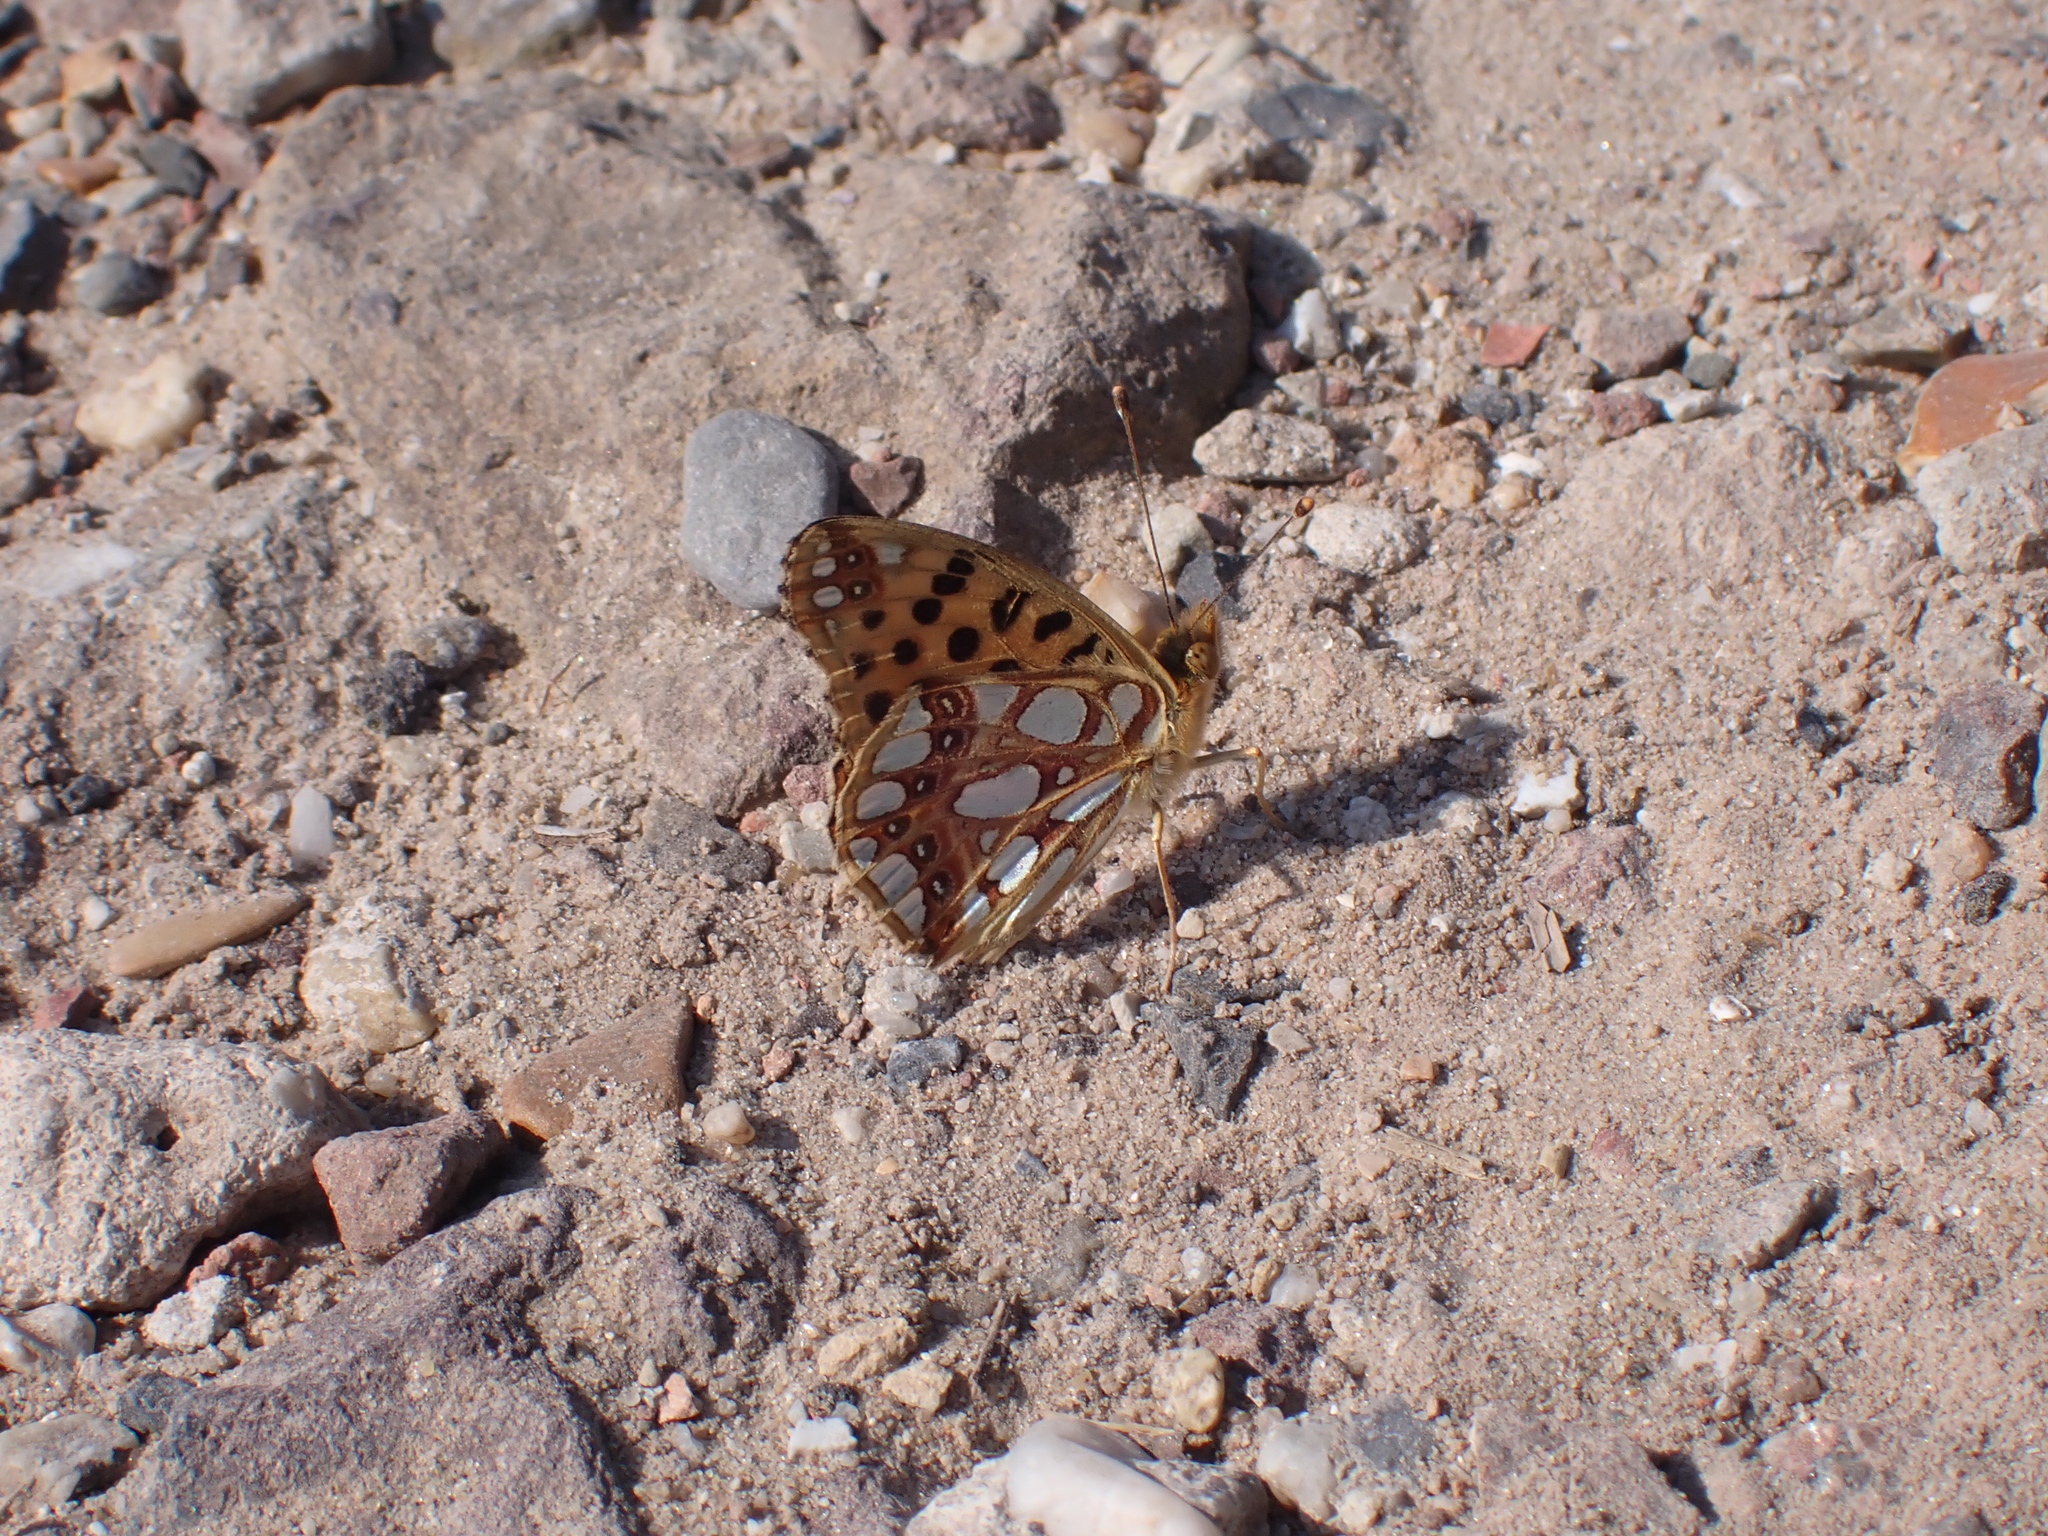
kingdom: Animalia
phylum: Arthropoda
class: Insecta
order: Lepidoptera
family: Nymphalidae
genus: Issoria
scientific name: Issoria lathonia
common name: Queen of spain fritillary
